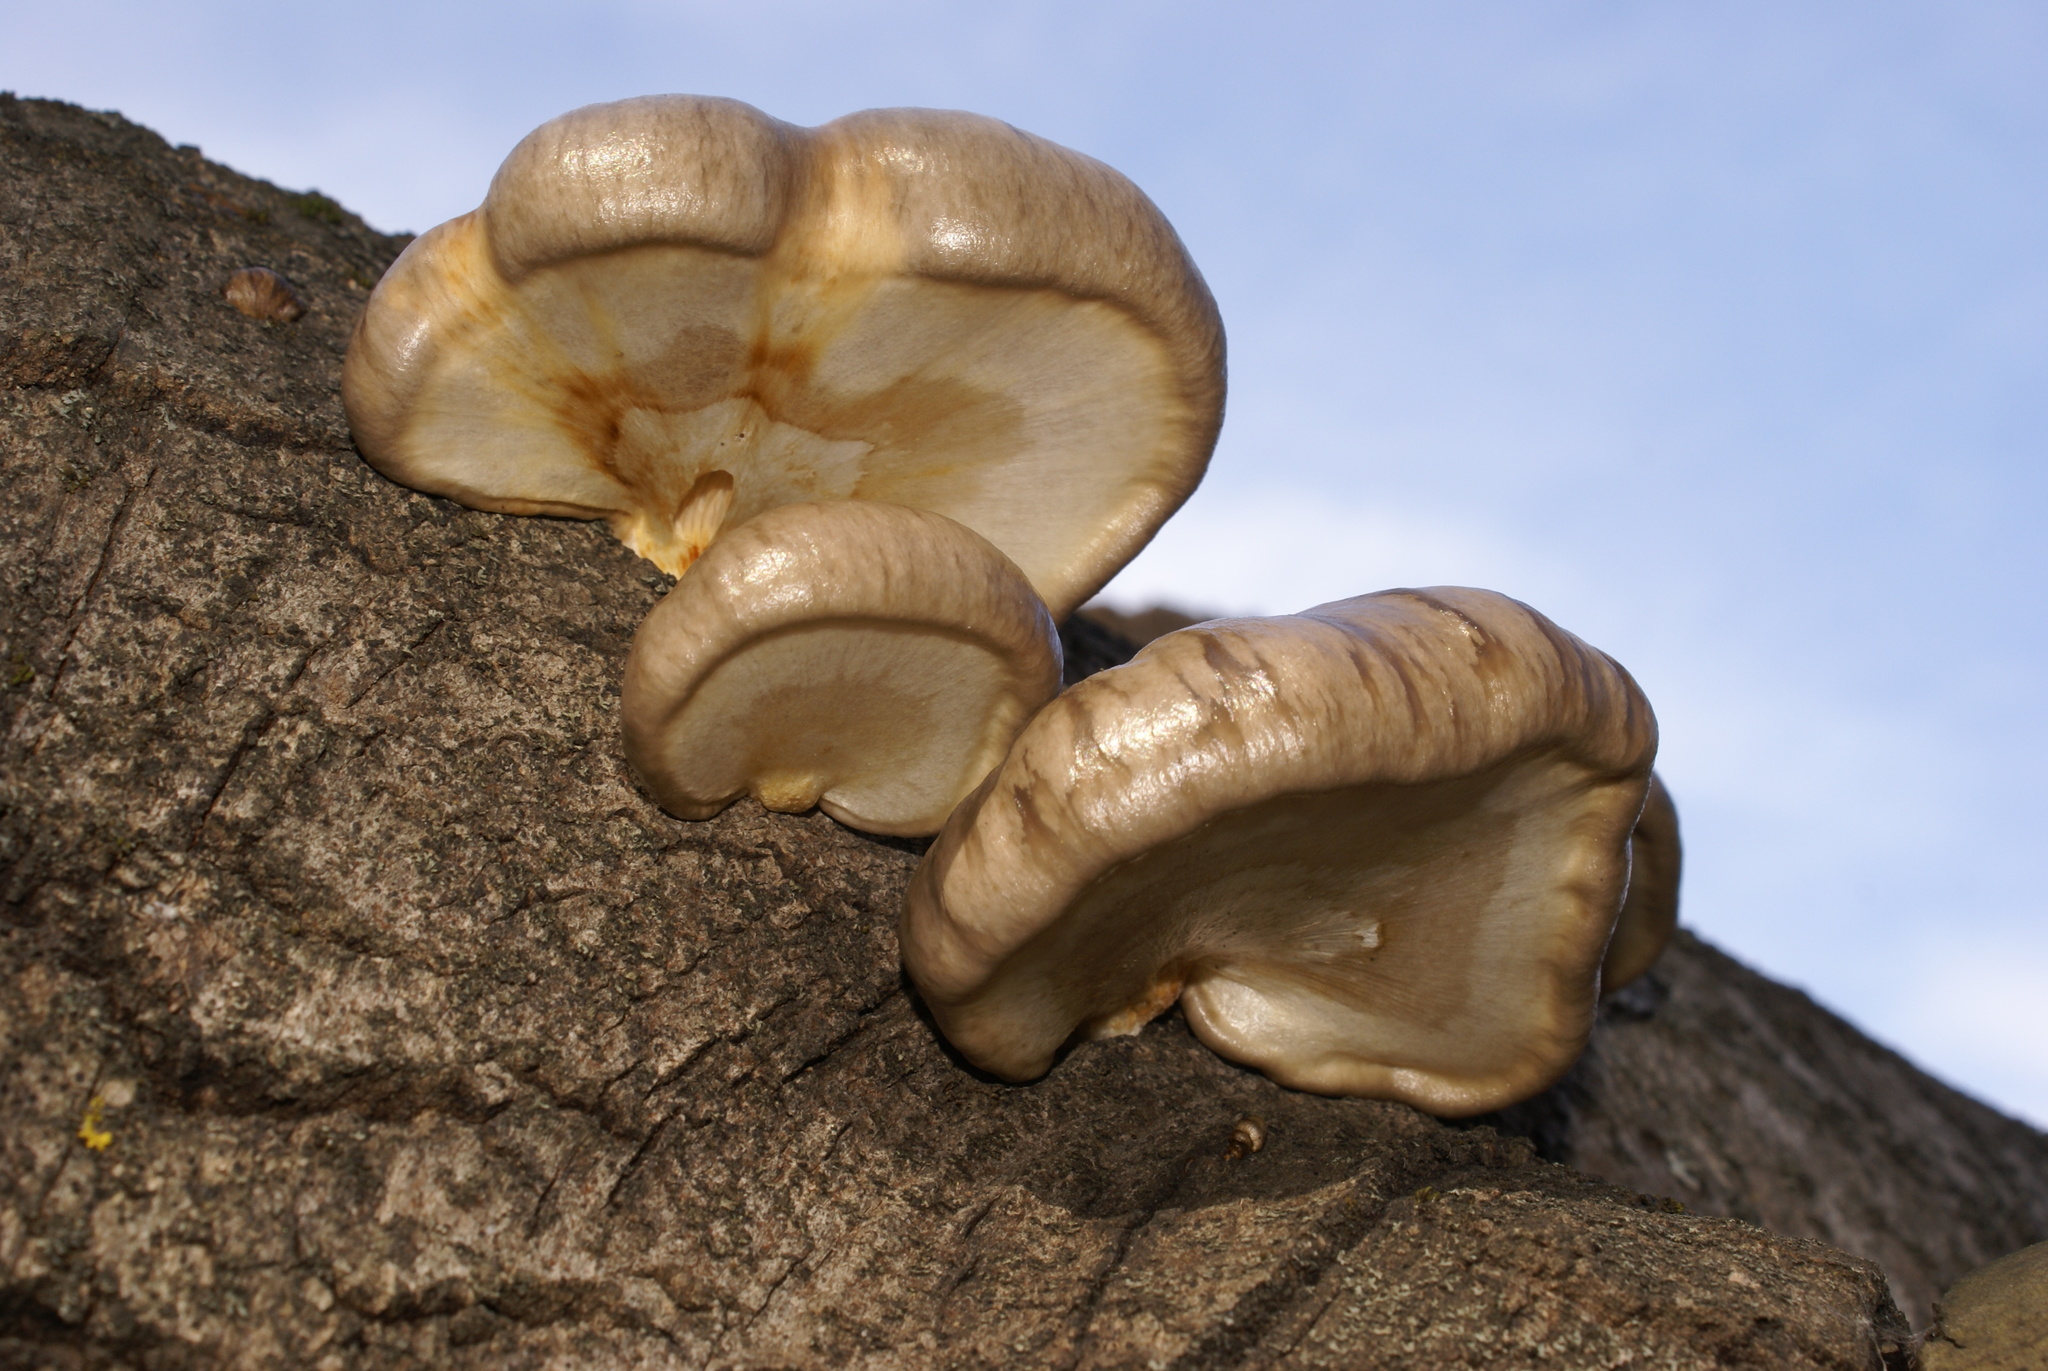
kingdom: Fungi
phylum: Basidiomycota
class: Agaricomycetes
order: Agaricales
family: Pleurotaceae
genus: Pleurotus
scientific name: Pleurotus calyptratus
